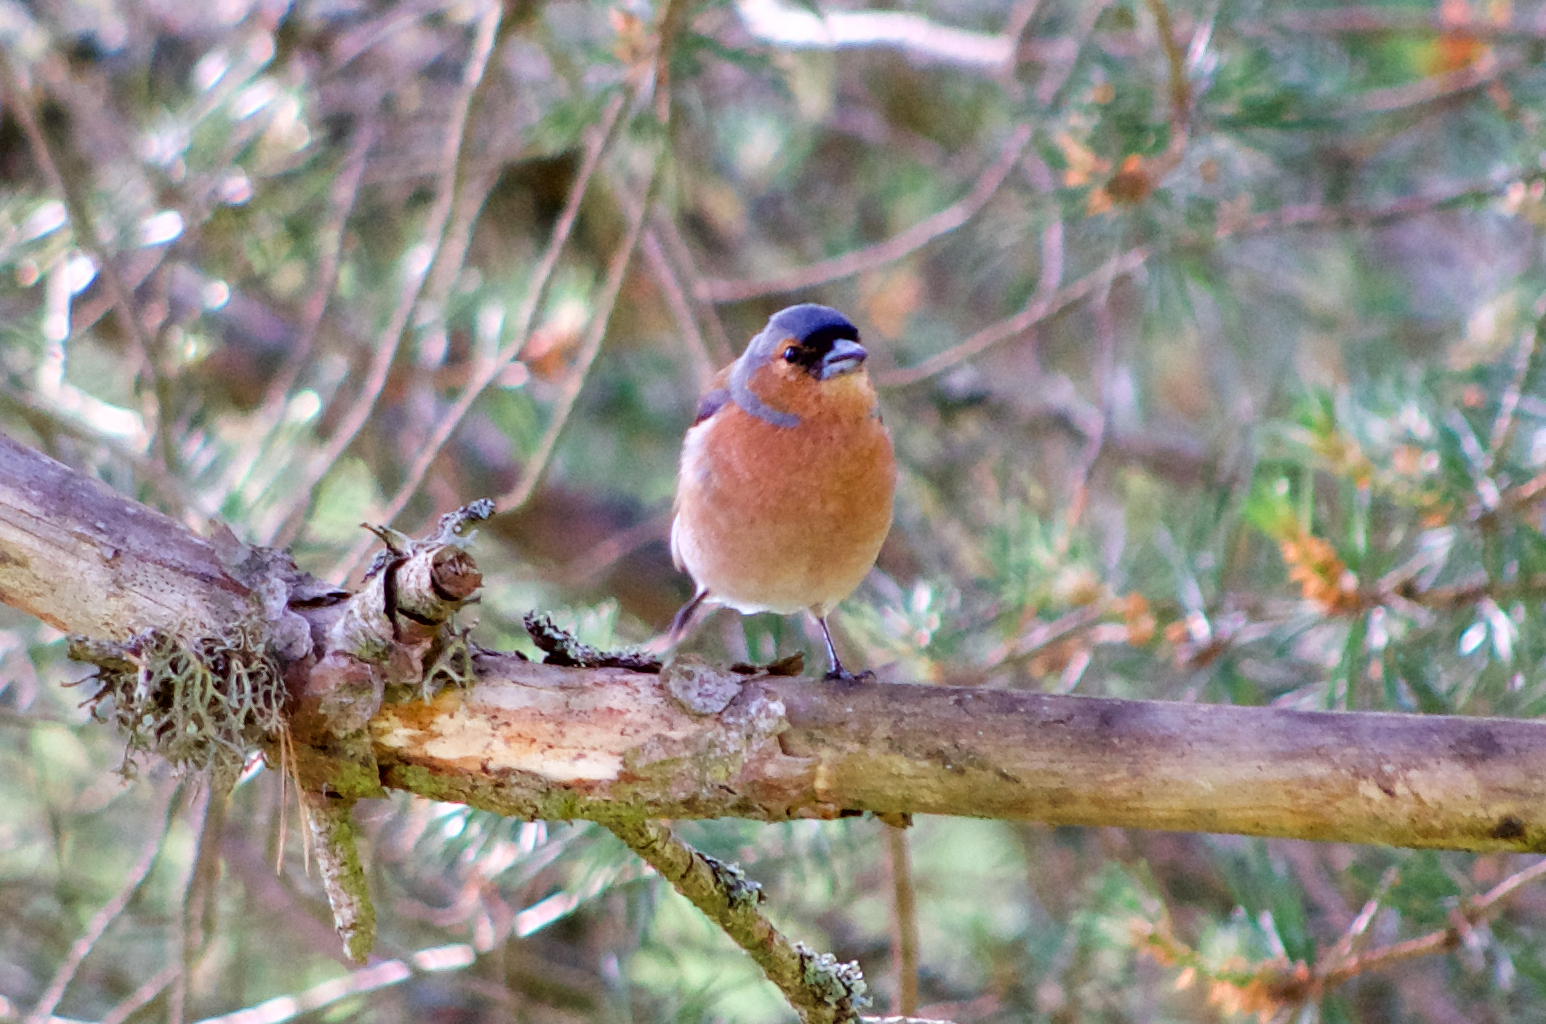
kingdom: Animalia
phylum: Chordata
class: Aves
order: Passeriformes
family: Fringillidae
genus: Fringilla
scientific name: Fringilla coelebs
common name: Common chaffinch
